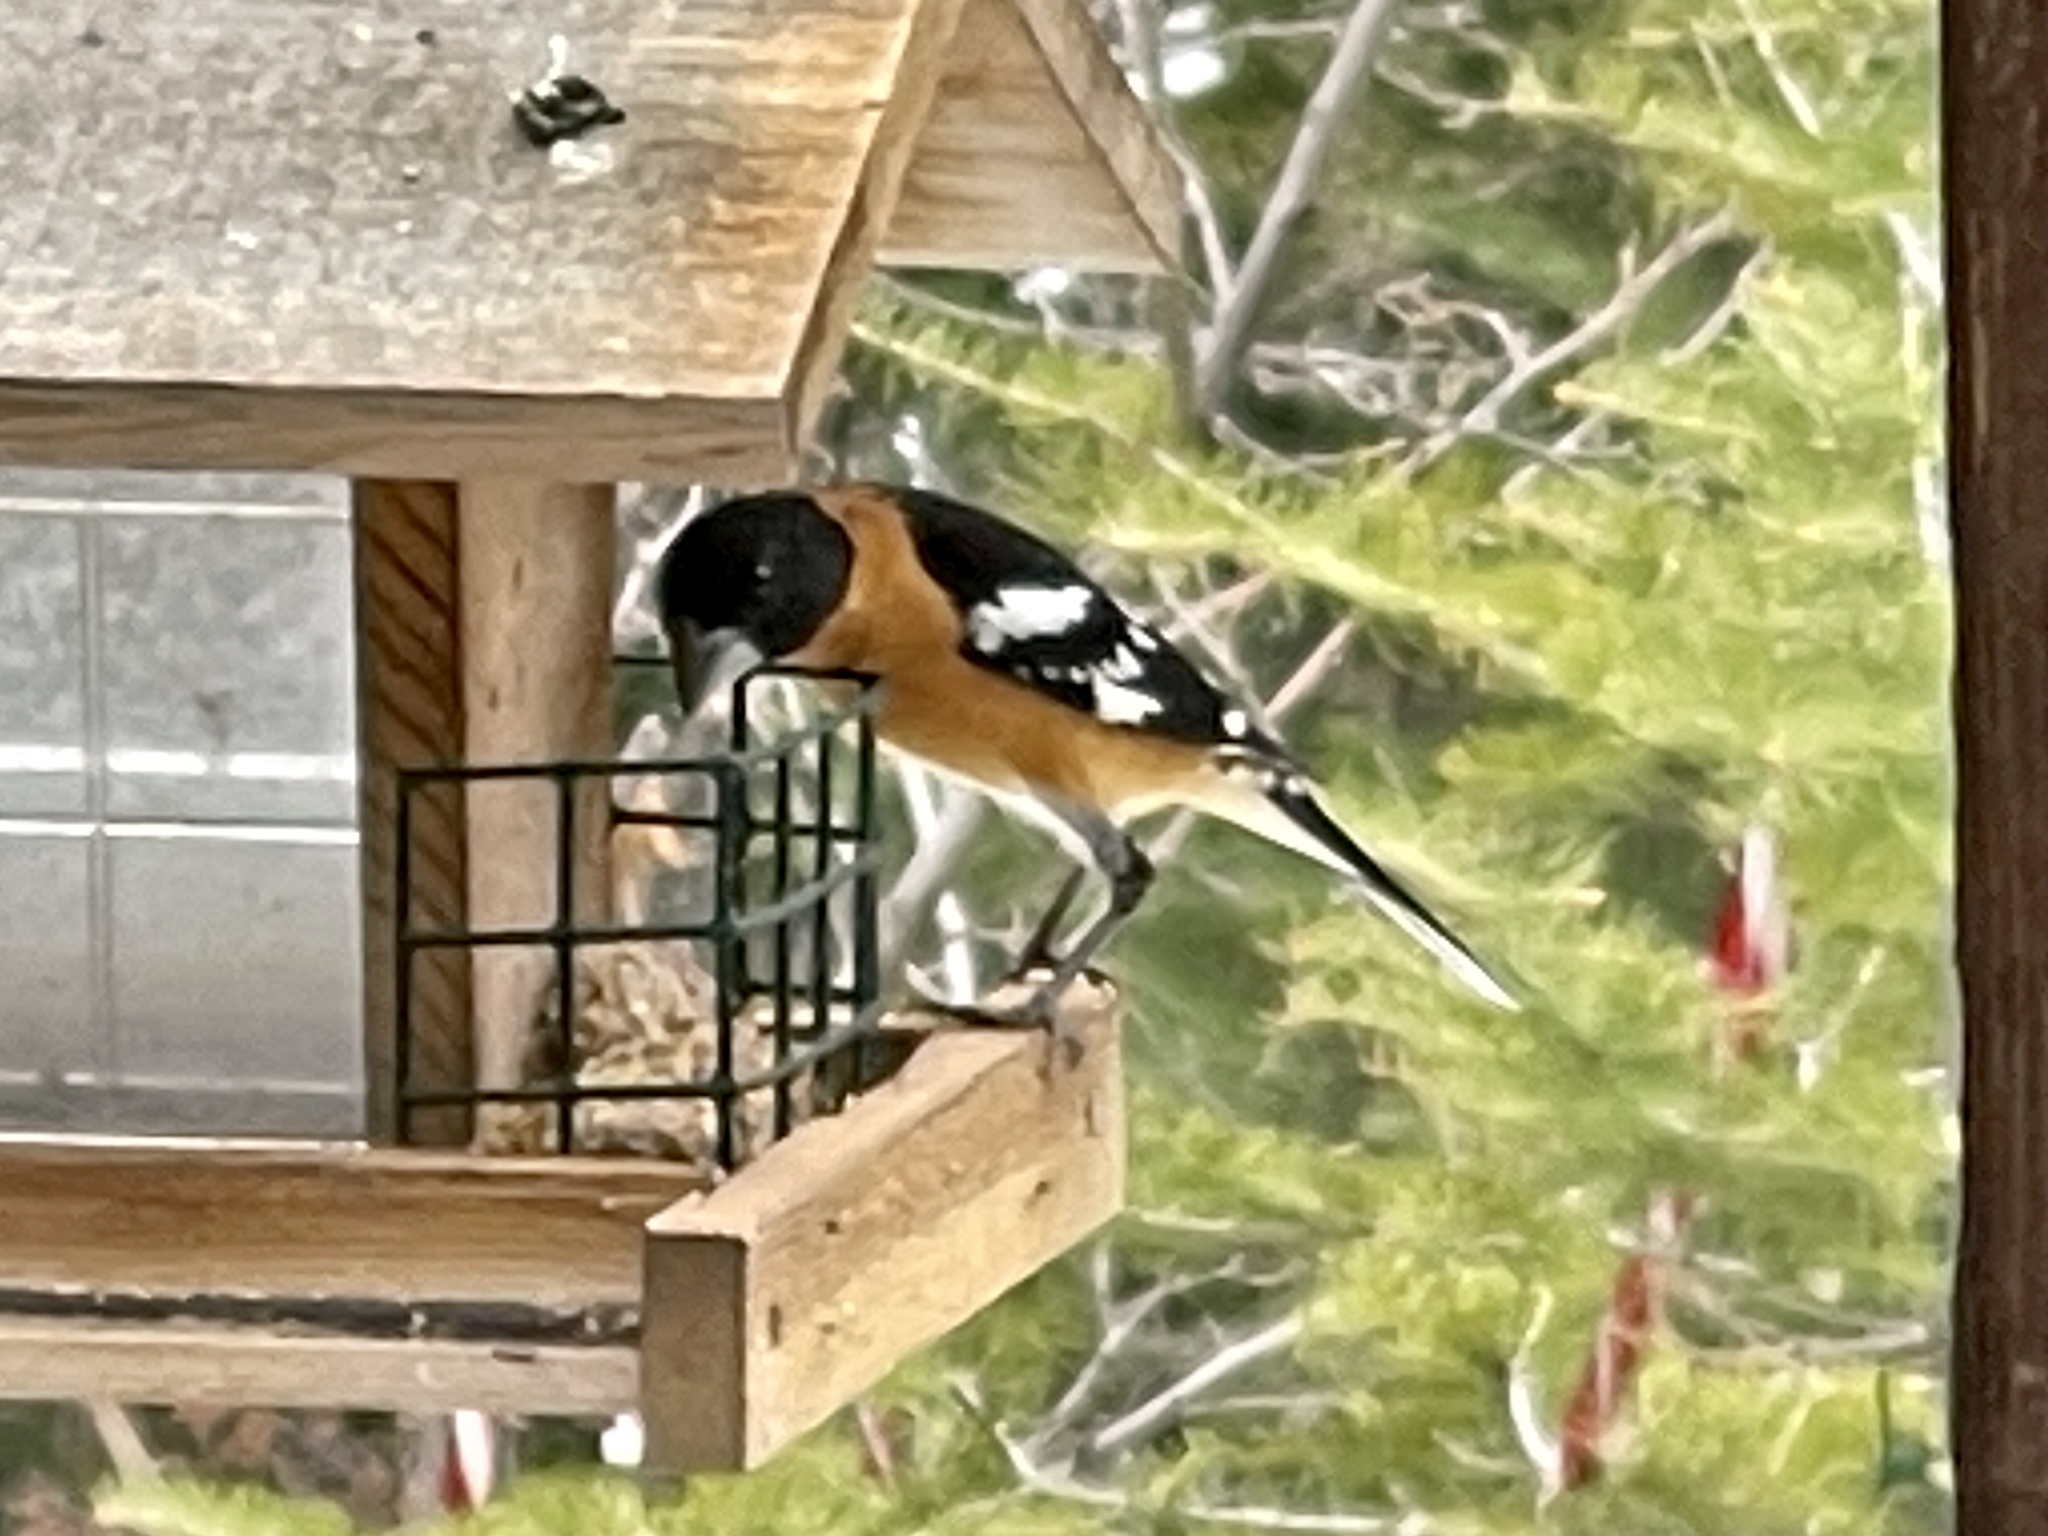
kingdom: Animalia
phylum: Chordata
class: Aves
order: Passeriformes
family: Cardinalidae
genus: Pheucticus
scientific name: Pheucticus melanocephalus
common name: Black-headed grosbeak
